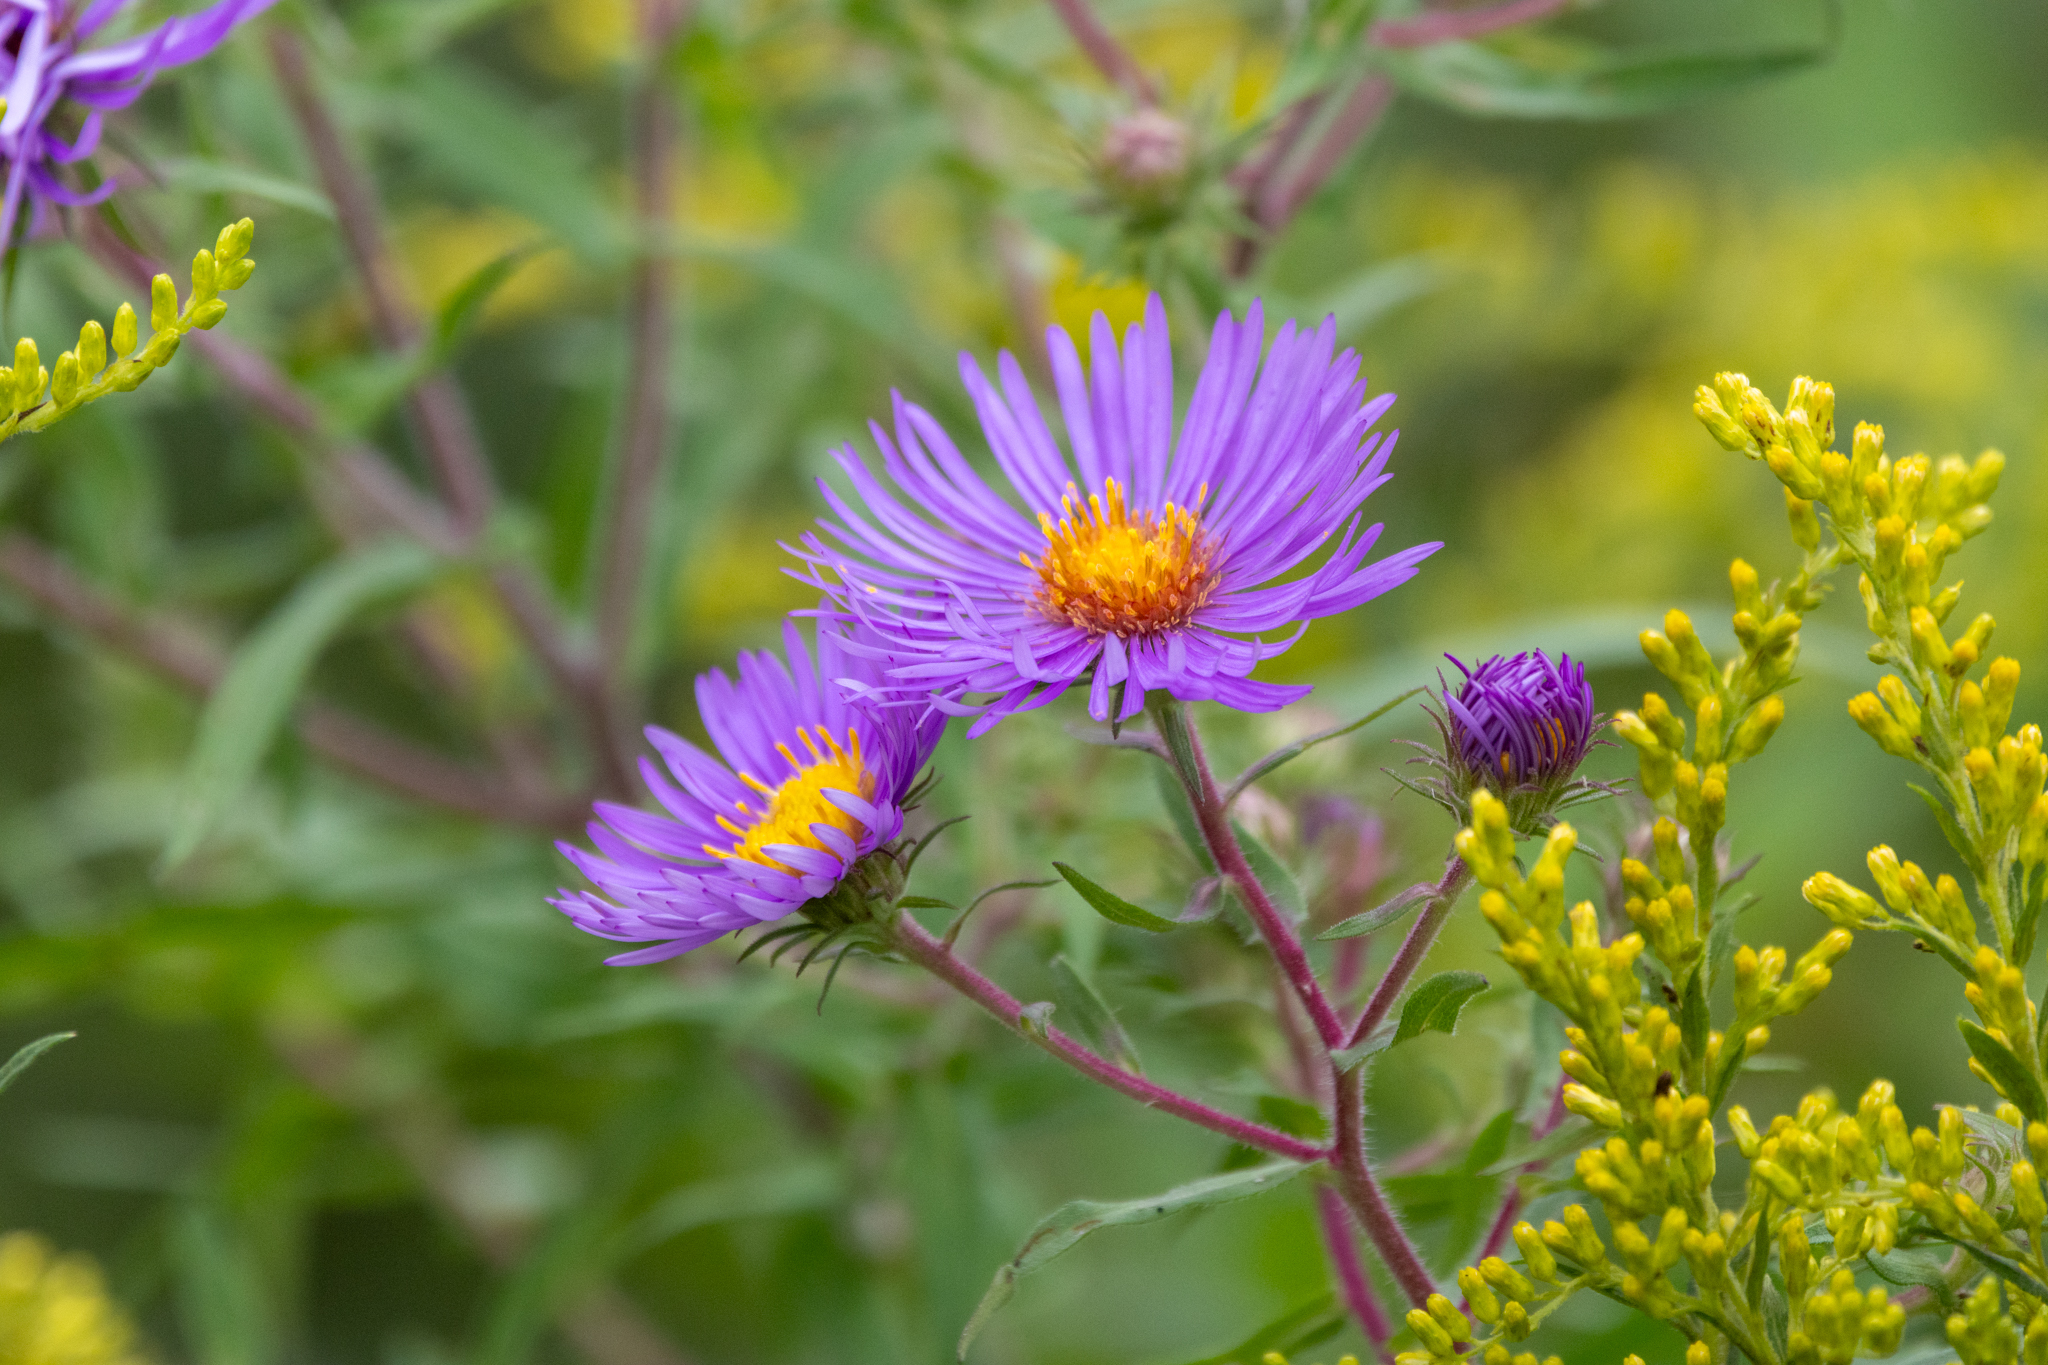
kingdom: Plantae
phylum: Tracheophyta
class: Magnoliopsida
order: Asterales
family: Asteraceae
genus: Symphyotrichum
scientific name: Symphyotrichum novae-angliae
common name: Michaelmas daisy
